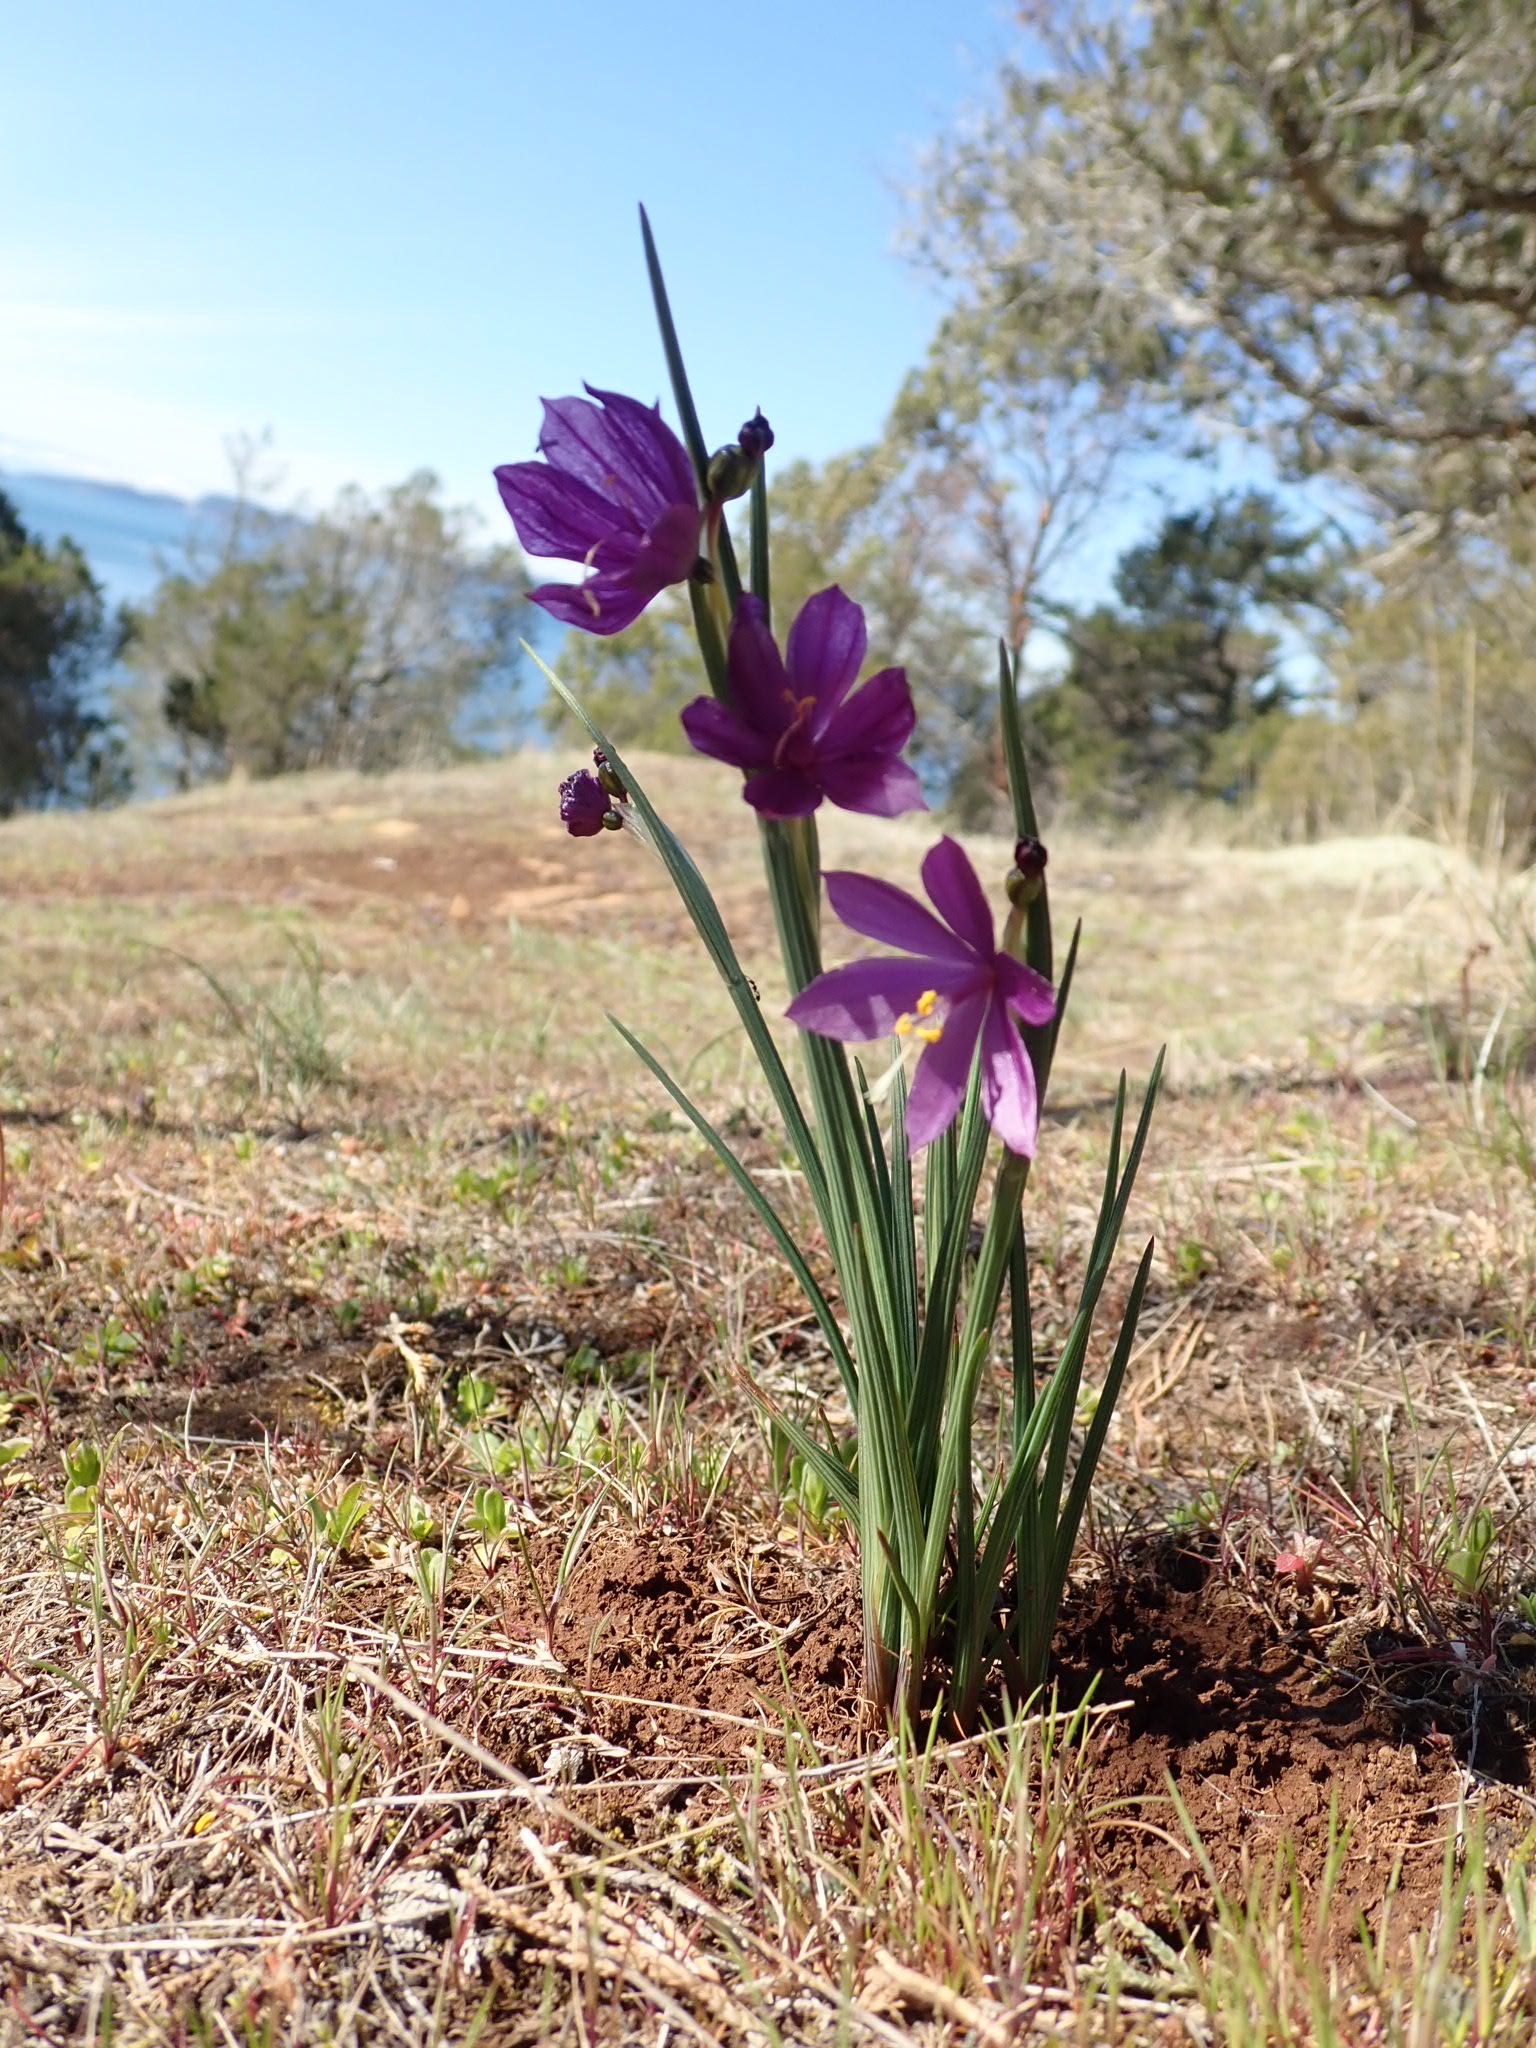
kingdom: Plantae
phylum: Tracheophyta
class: Liliopsida
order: Asparagales
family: Iridaceae
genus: Olsynium
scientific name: Olsynium douglasii
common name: Douglas' grasswidow
